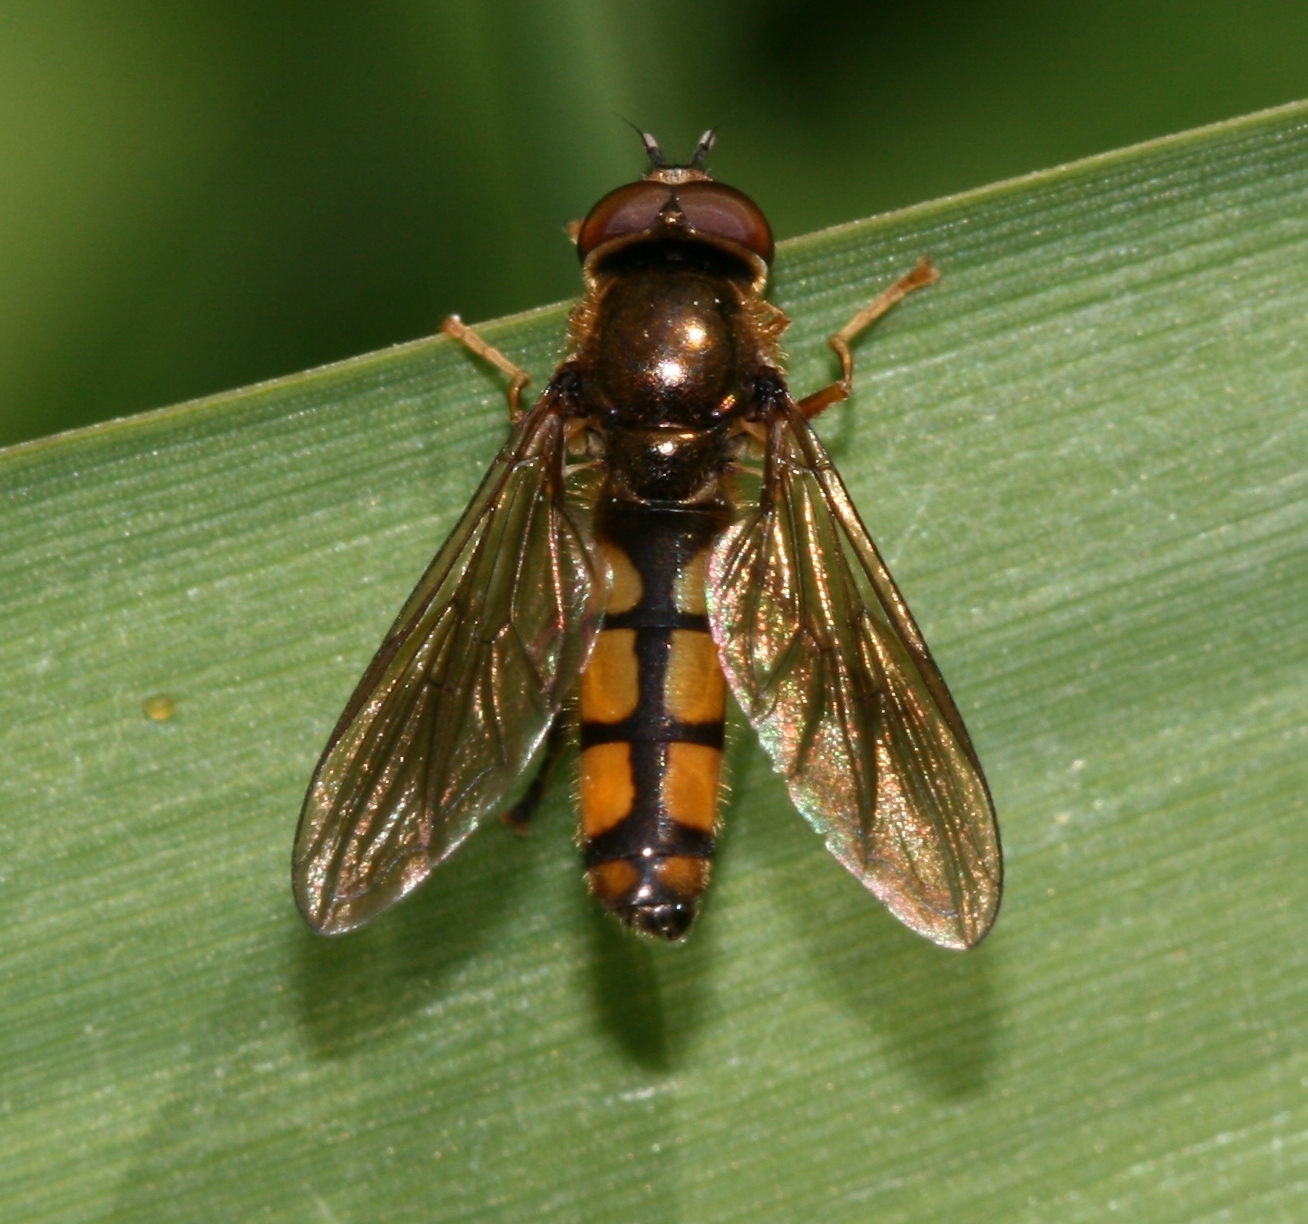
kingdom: Animalia
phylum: Arthropoda
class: Insecta
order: Diptera
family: Syrphidae
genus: Platycheirus
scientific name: Platycheirus scambus
